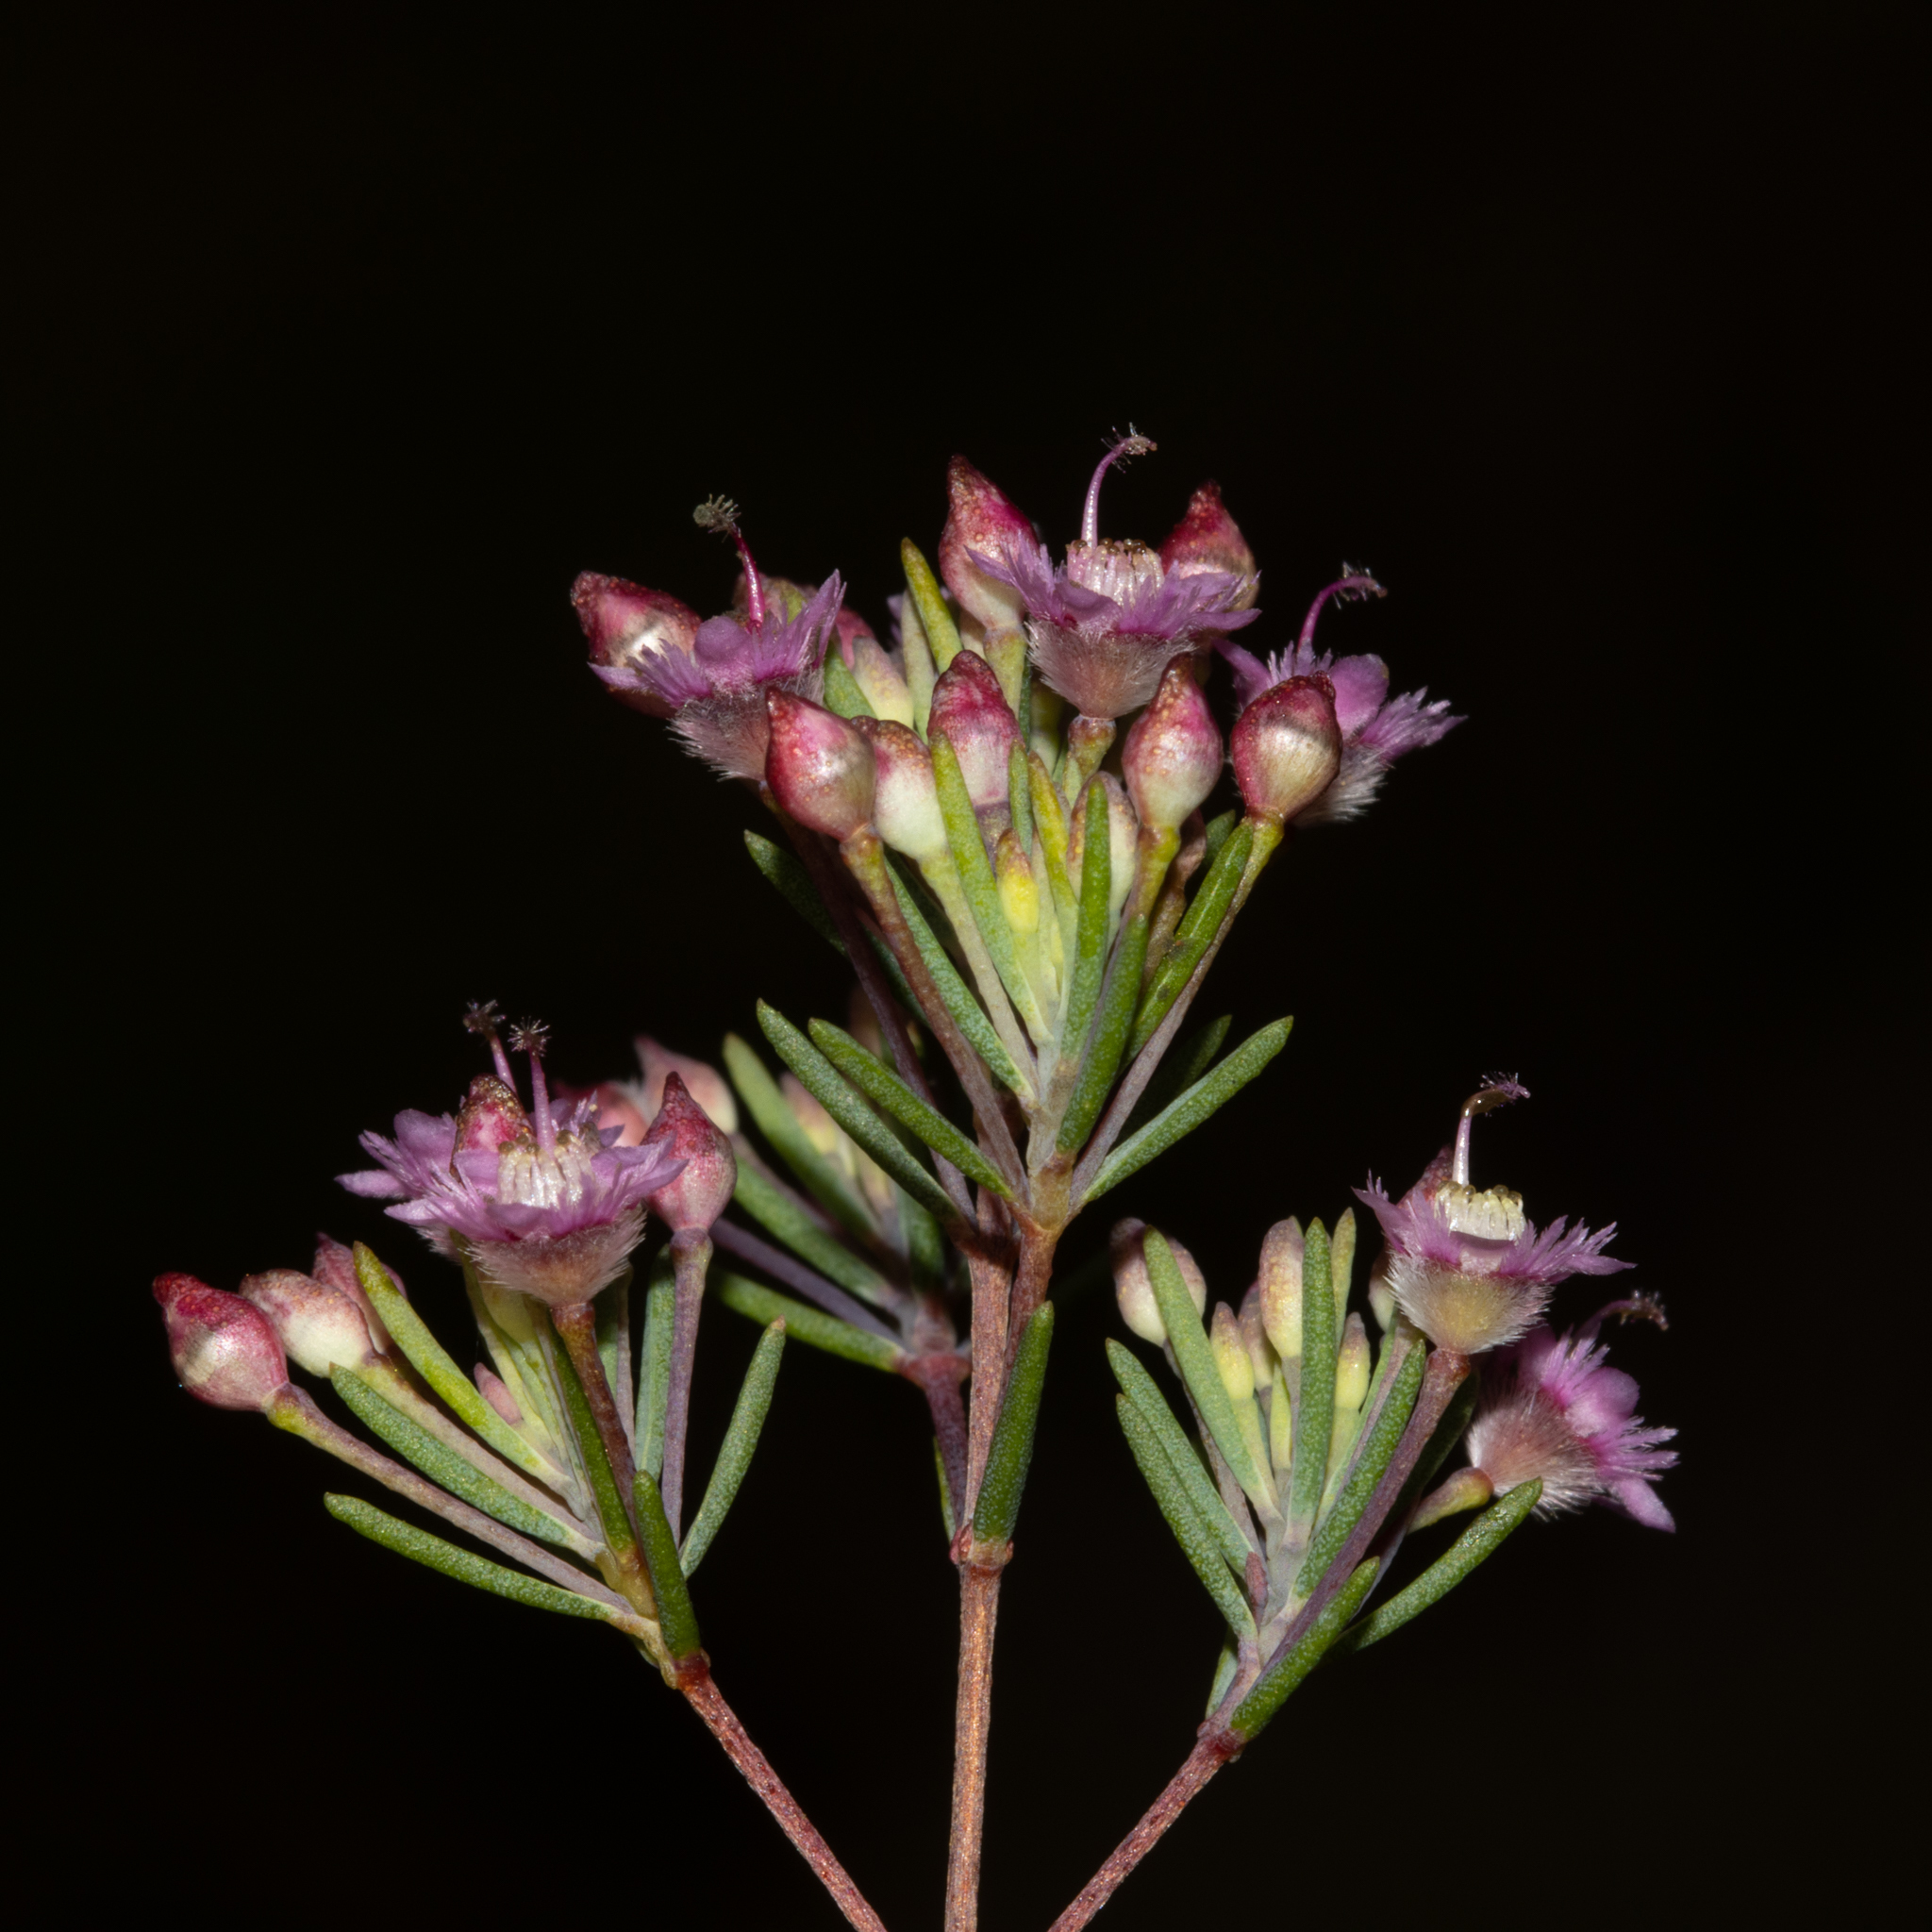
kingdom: Plantae
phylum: Tracheophyta
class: Magnoliopsida
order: Myrtales
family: Myrtaceae
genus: Verticordia
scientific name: Verticordia plumosa
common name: Plume feather-flower
